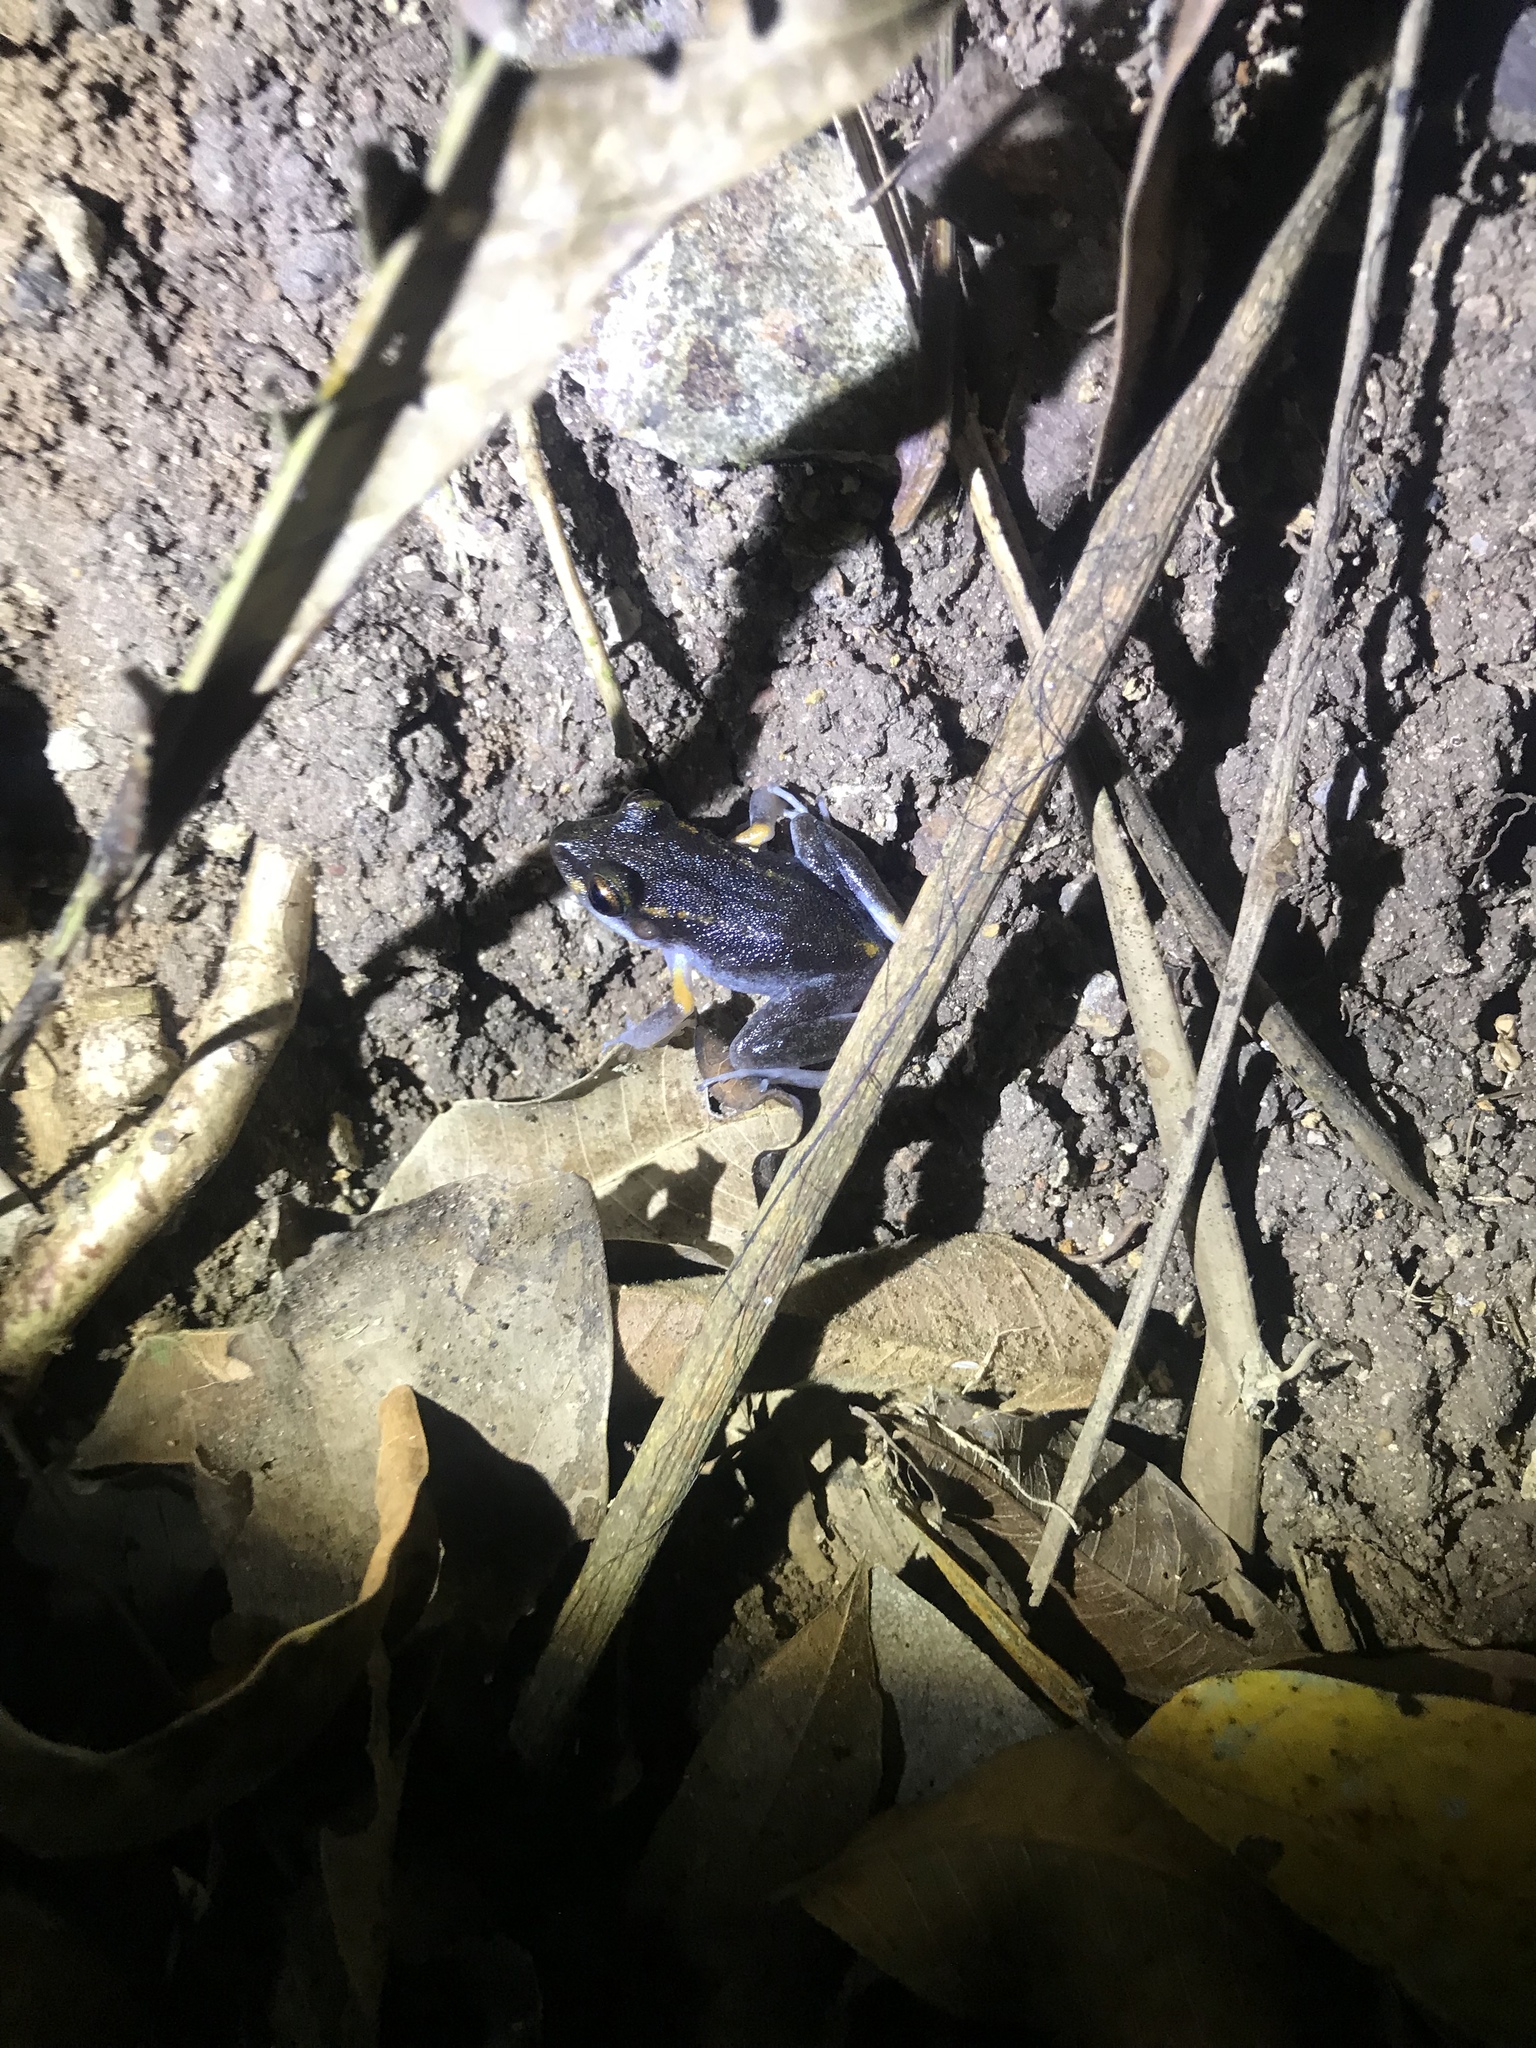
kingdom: Animalia
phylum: Chordata
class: Amphibia
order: Anura
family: Craugastoridae
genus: Pristimantis
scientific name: Pristimantis gaigei
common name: Fort randolph robber frog
